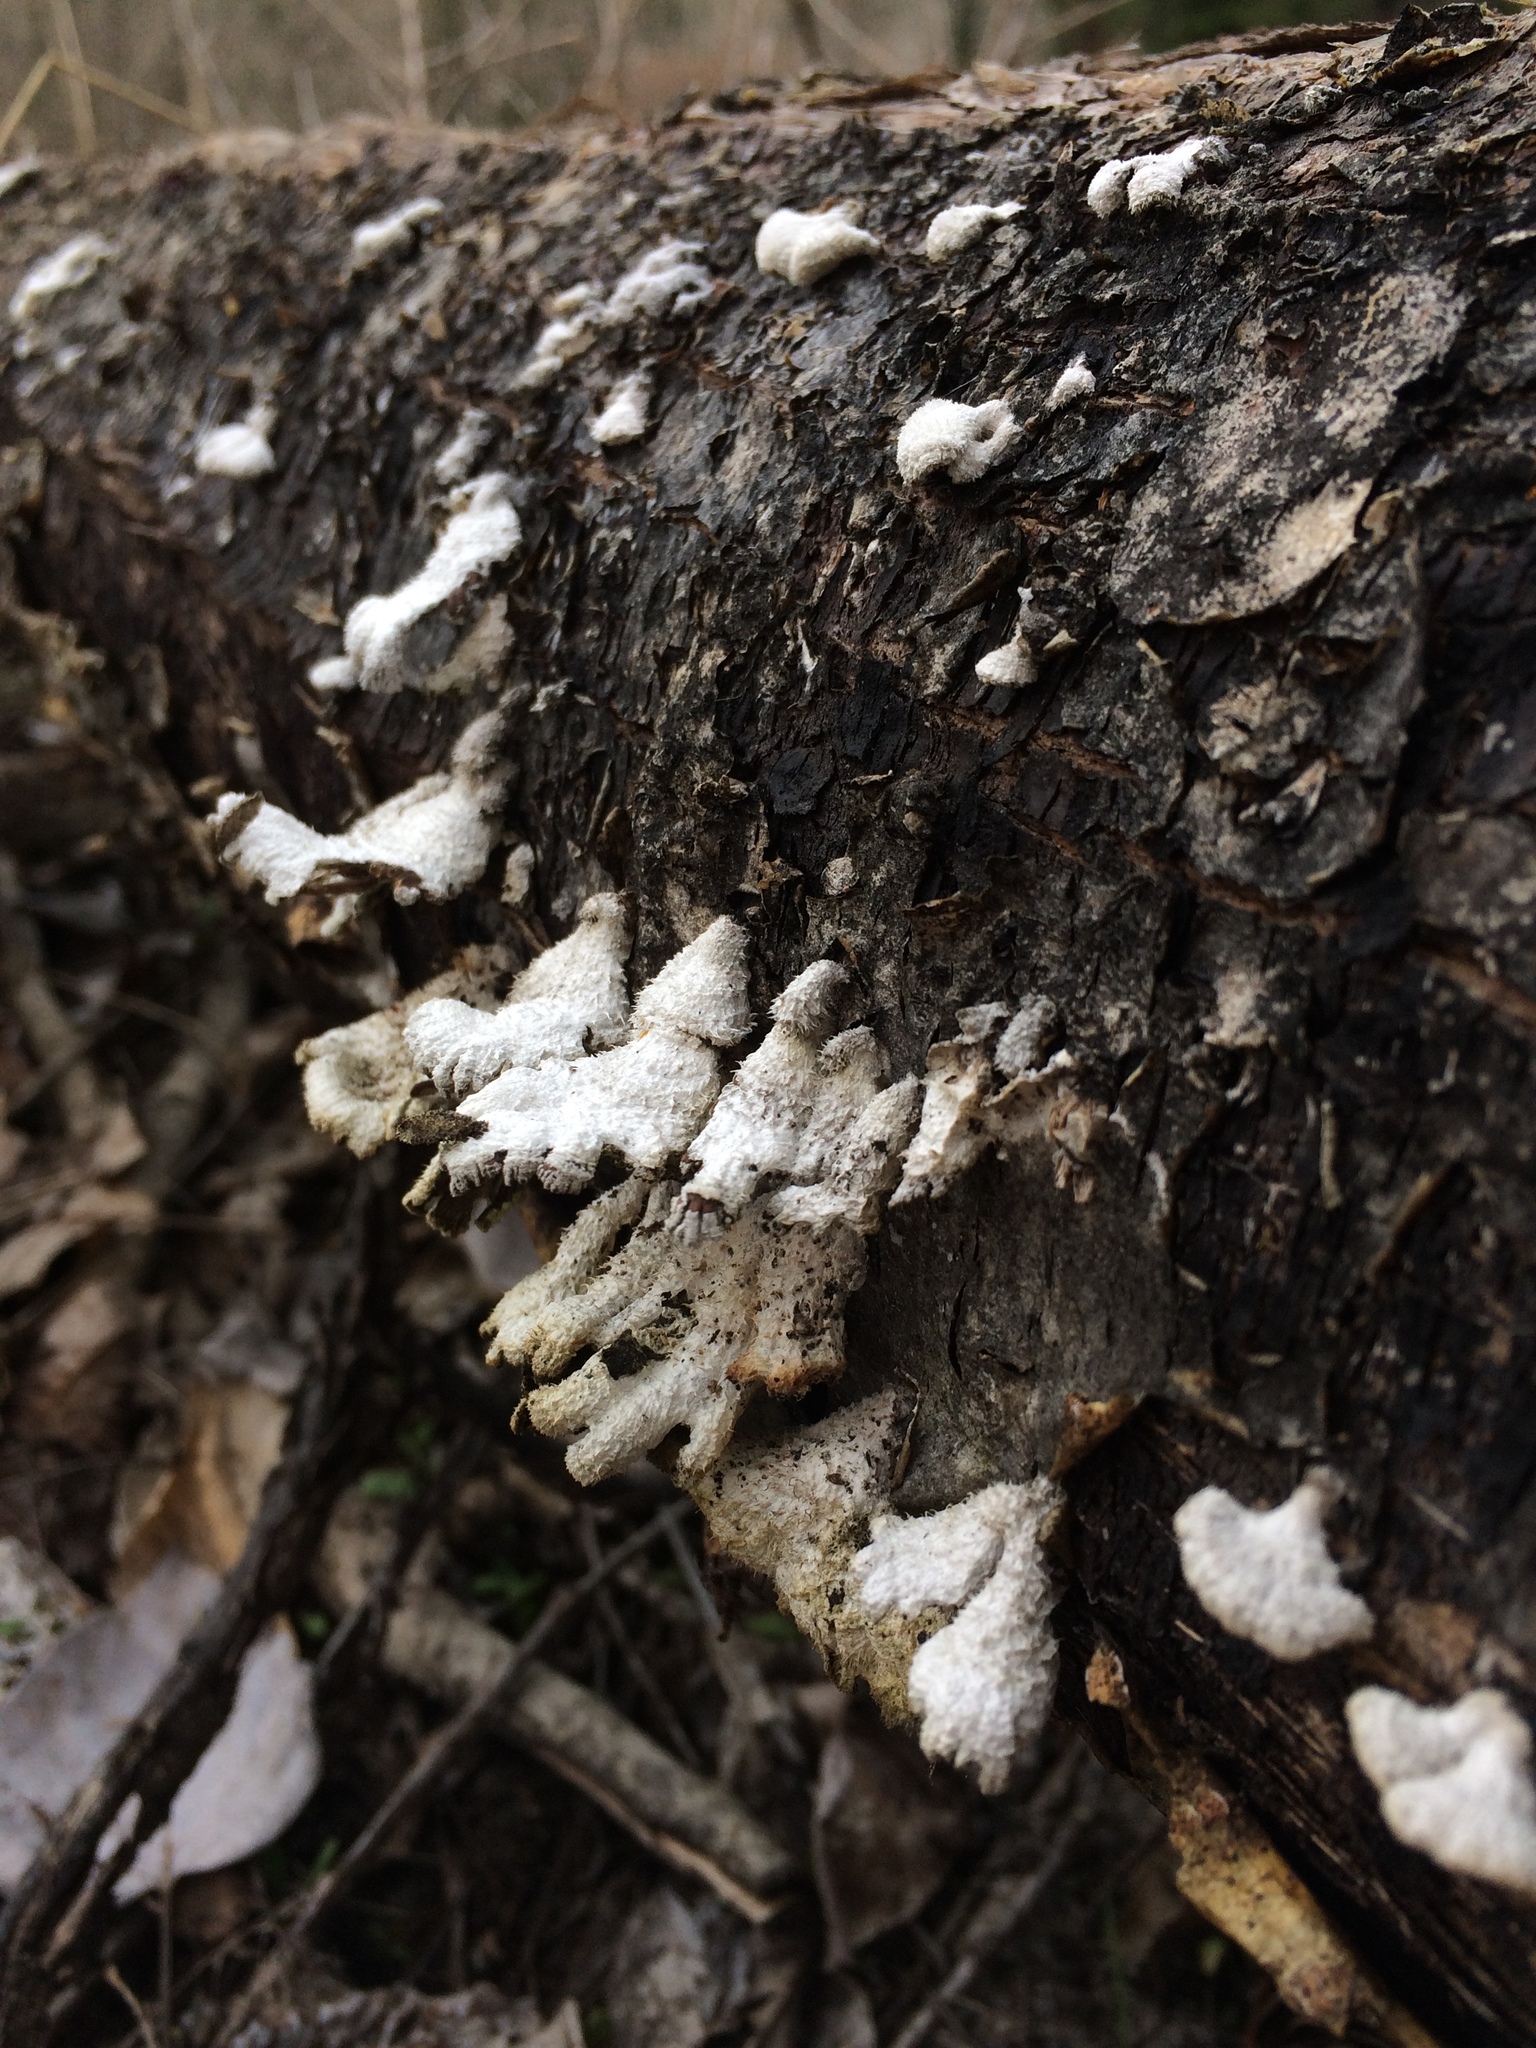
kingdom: Fungi
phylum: Basidiomycota
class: Agaricomycetes
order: Agaricales
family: Schizophyllaceae
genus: Schizophyllum
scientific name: Schizophyllum commune
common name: Common porecrust
